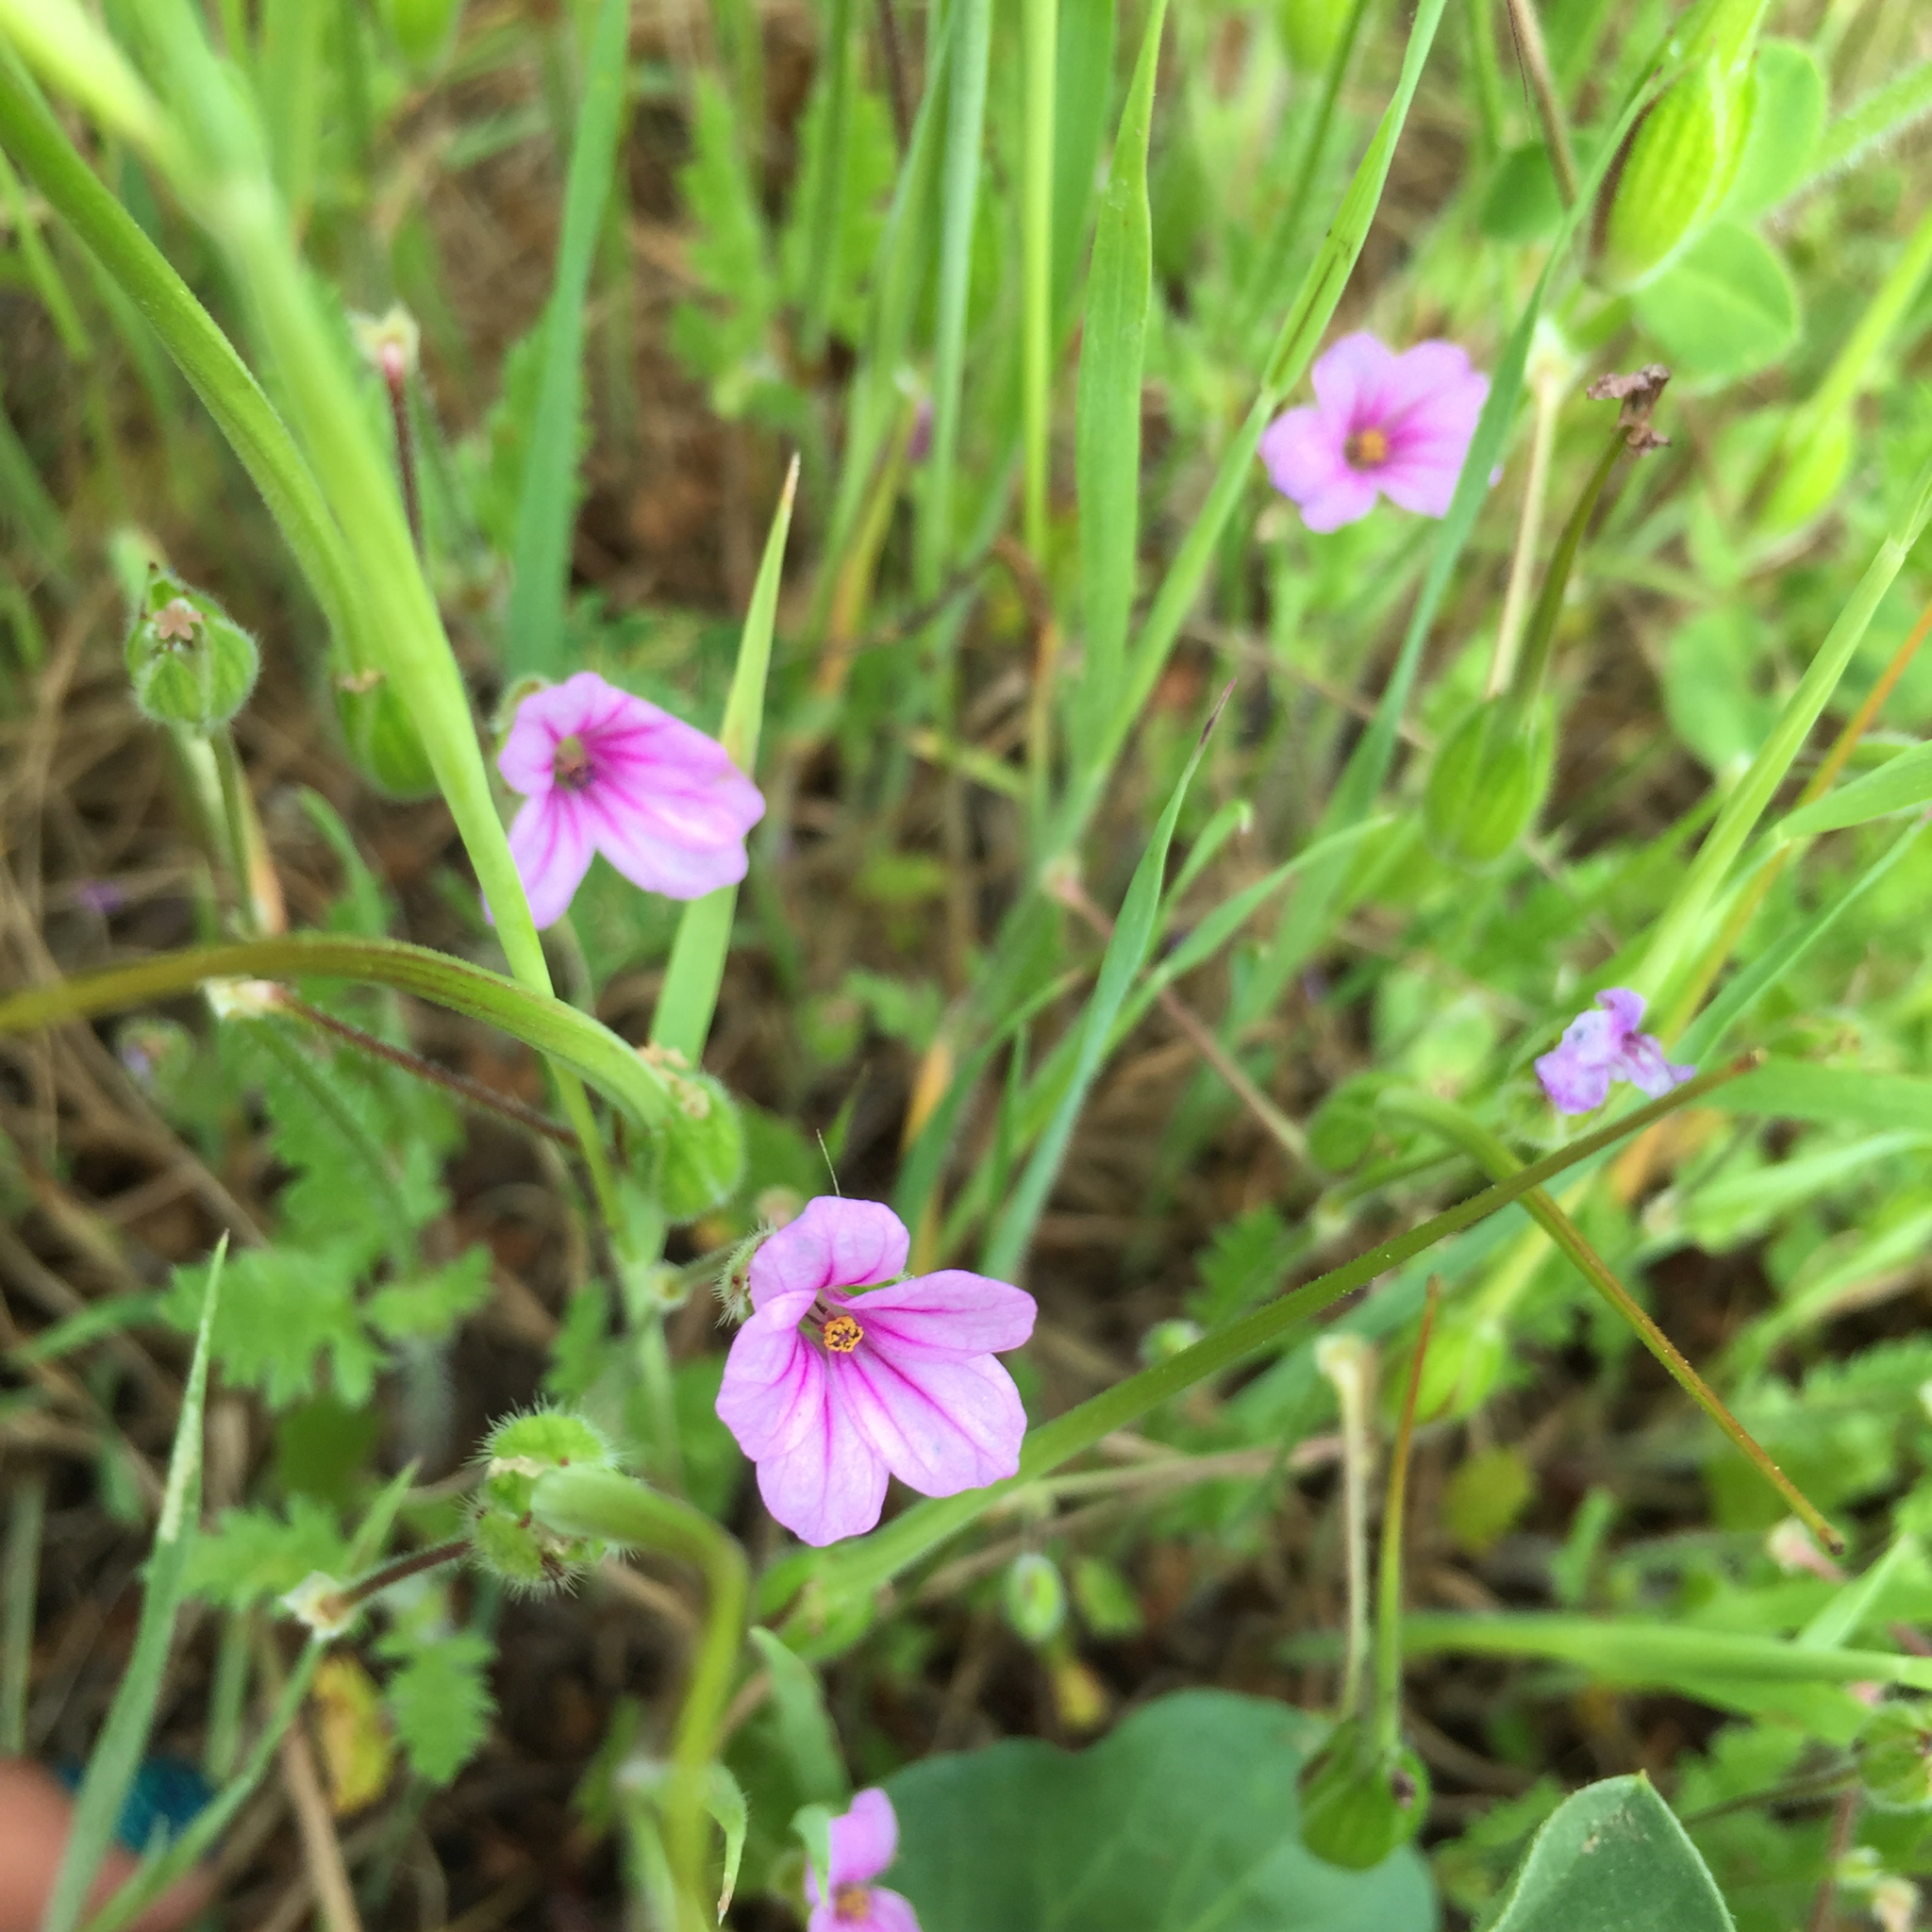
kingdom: Plantae
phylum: Tracheophyta
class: Magnoliopsida
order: Geraniales
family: Geraniaceae
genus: Erodium
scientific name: Erodium botrys
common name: Mediterranean stork's-bill
